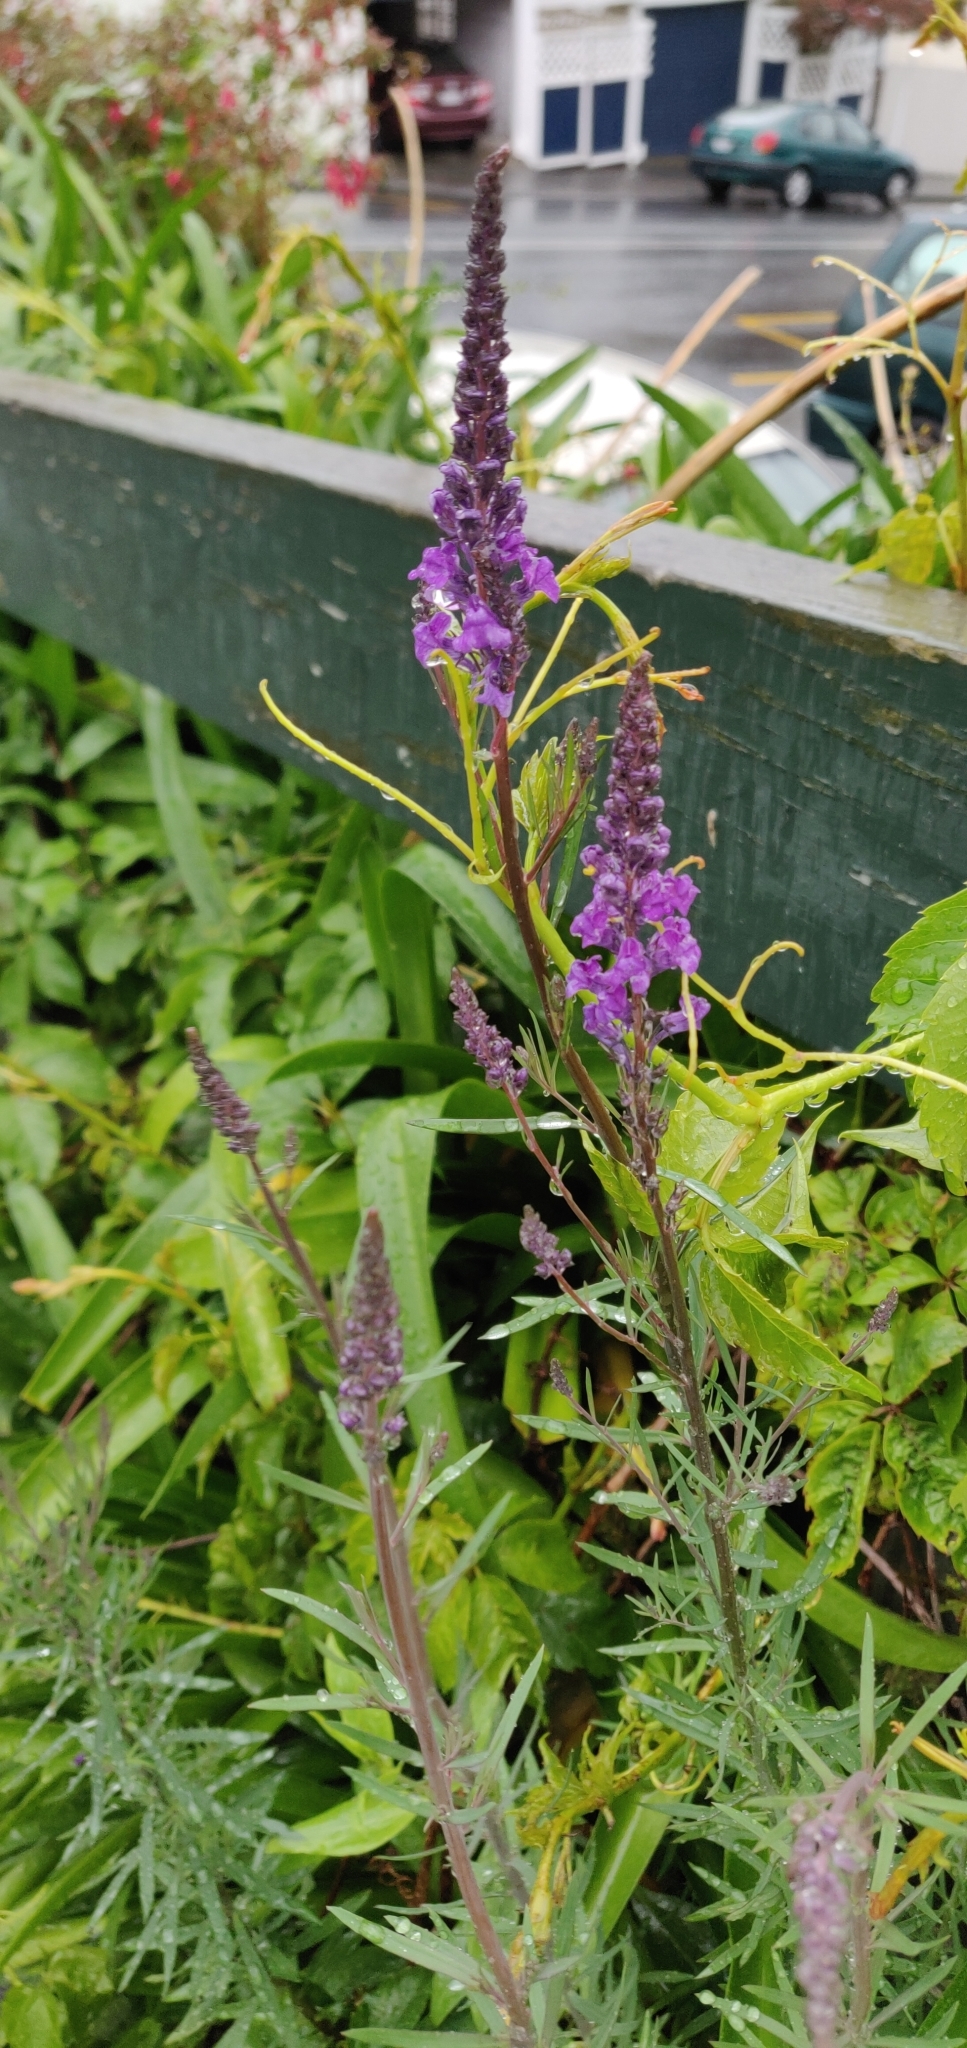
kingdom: Plantae
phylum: Tracheophyta
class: Magnoliopsida
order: Lamiales
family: Plantaginaceae
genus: Linaria
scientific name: Linaria purpurea
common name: Purple toadflax
